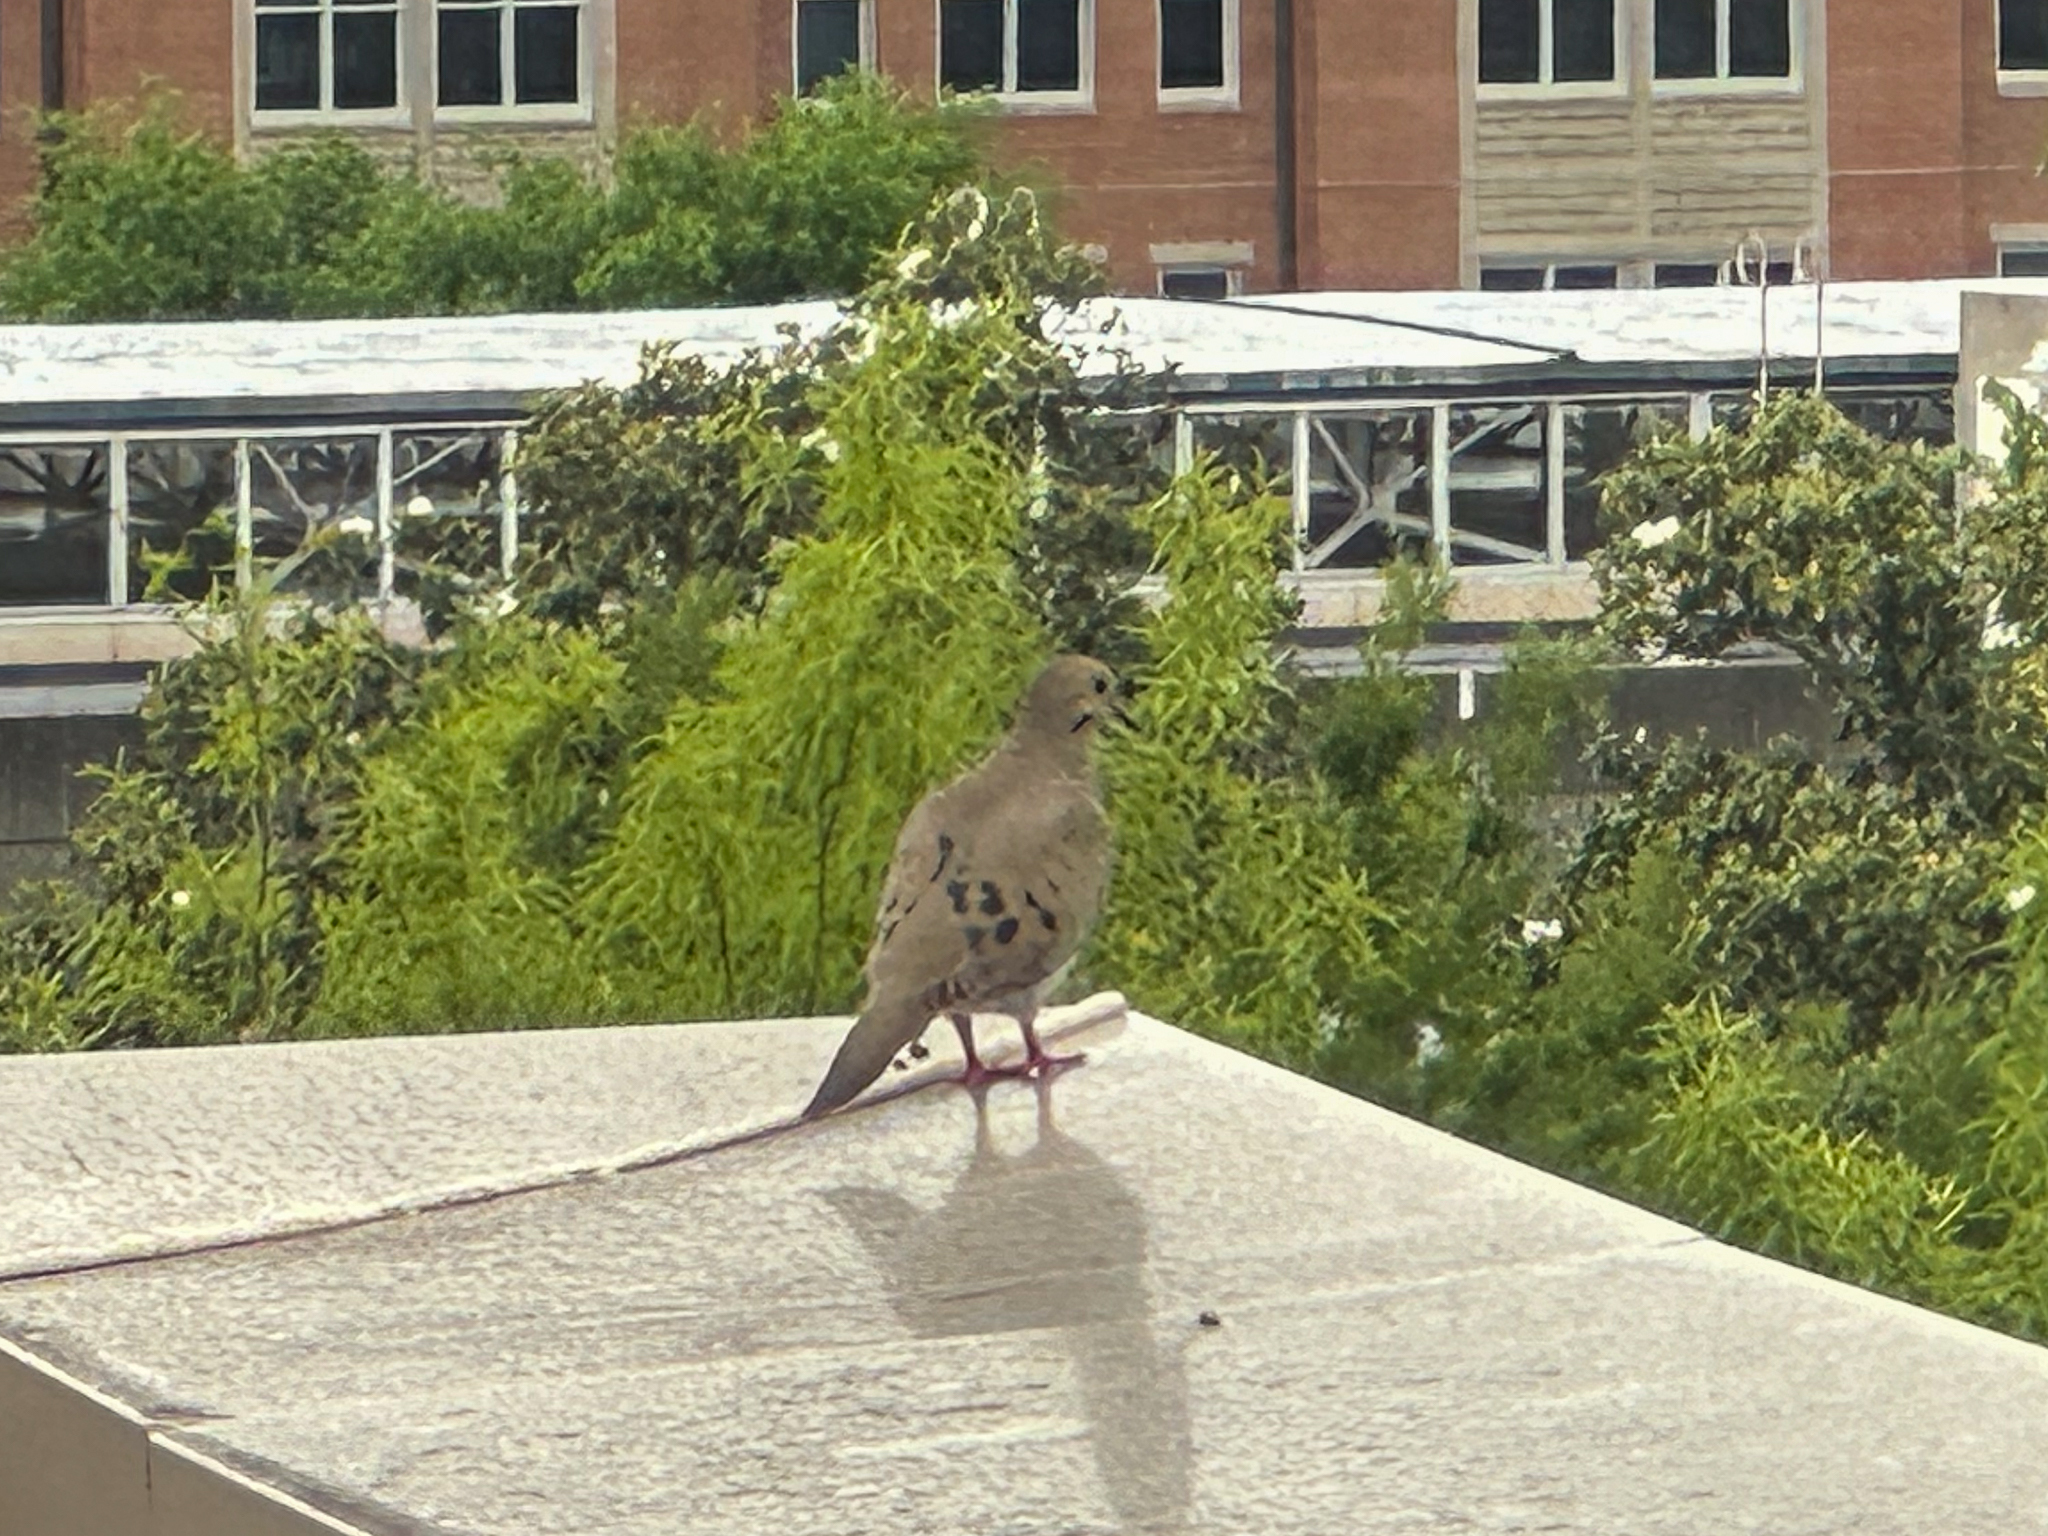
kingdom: Animalia
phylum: Chordata
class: Aves
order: Columbiformes
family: Columbidae
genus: Zenaida
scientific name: Zenaida macroura
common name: Mourning dove
